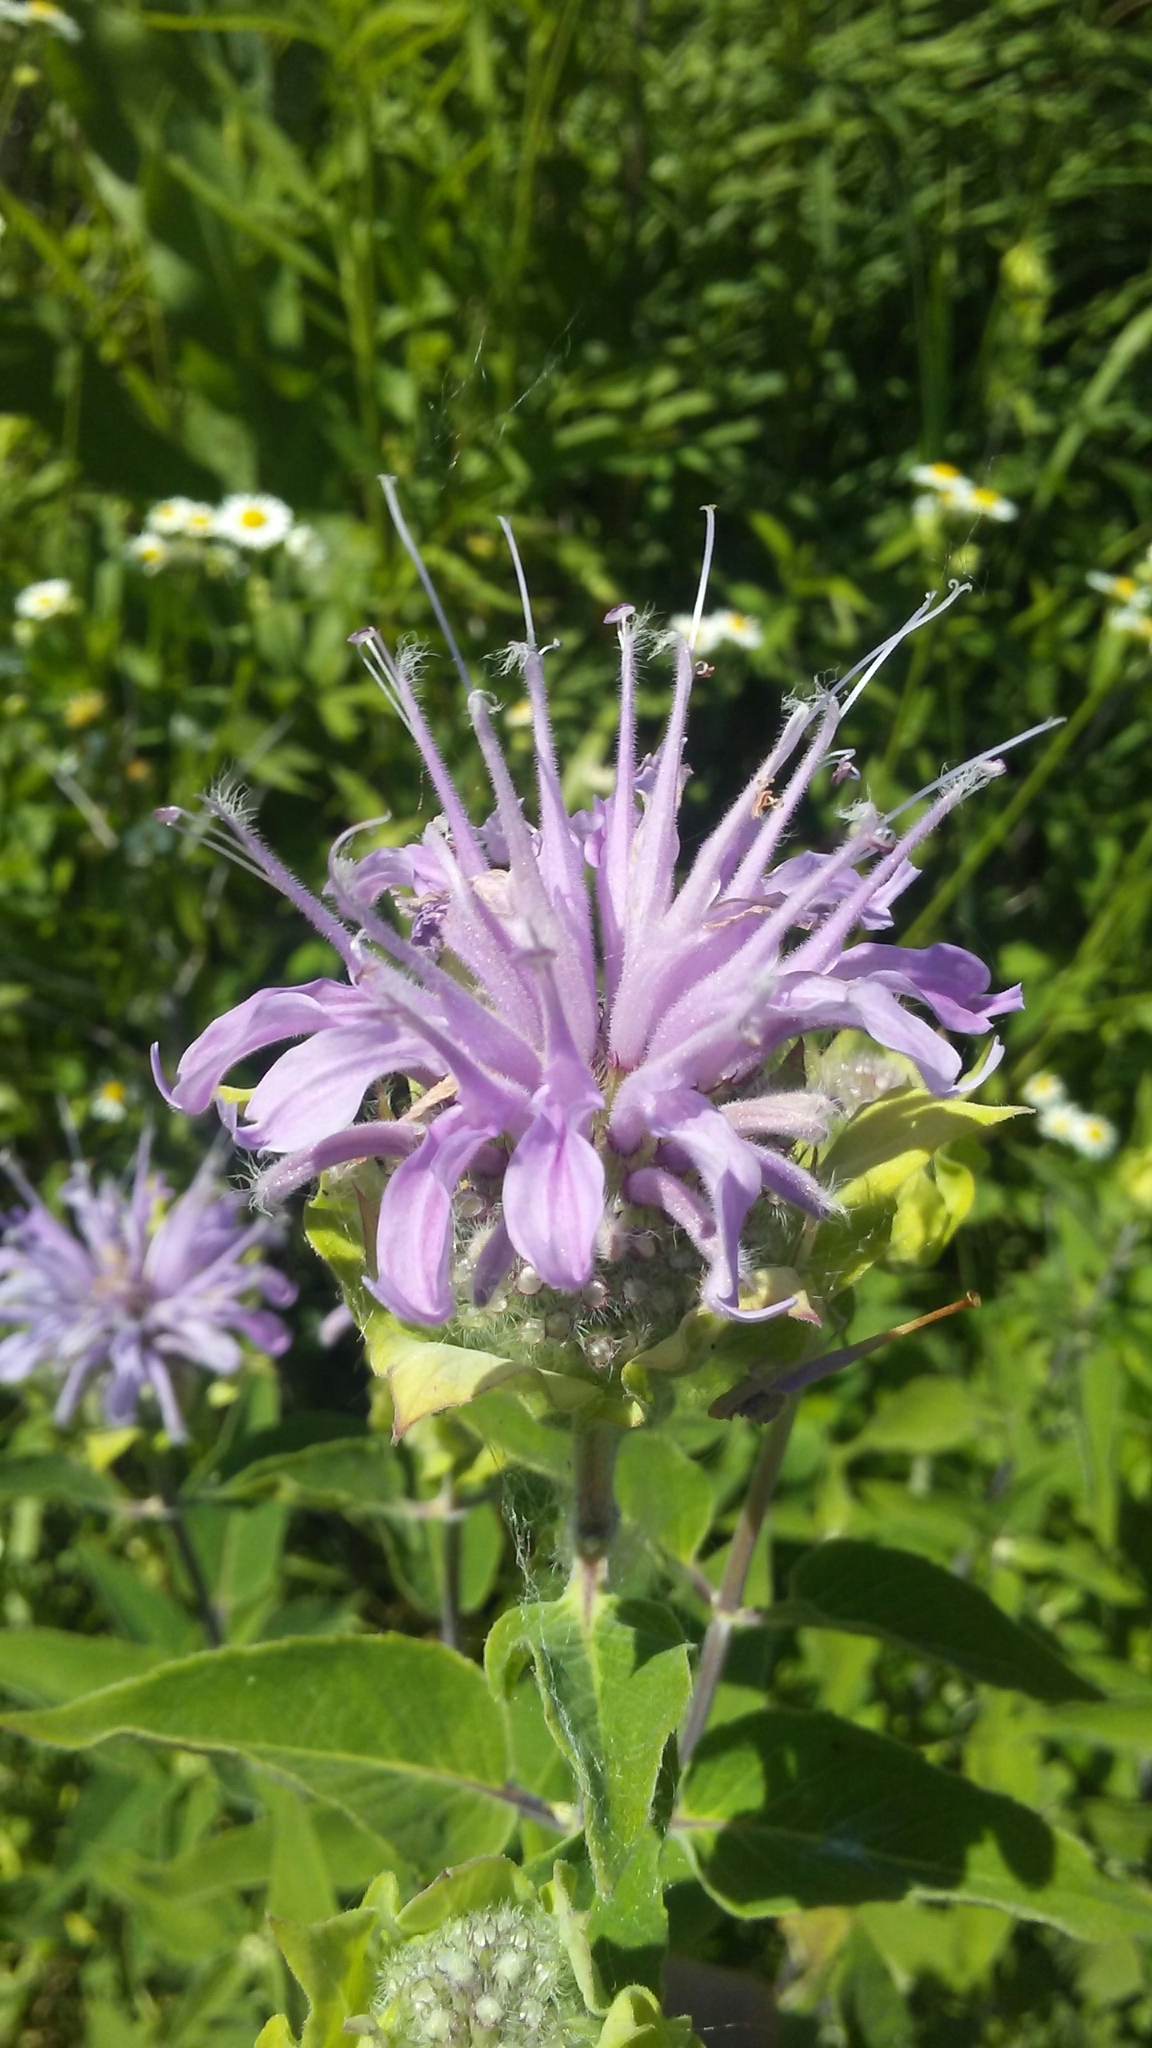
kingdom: Plantae
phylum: Tracheophyta
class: Magnoliopsida
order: Lamiales
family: Lamiaceae
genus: Monarda
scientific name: Monarda fistulosa
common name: Purple beebalm
